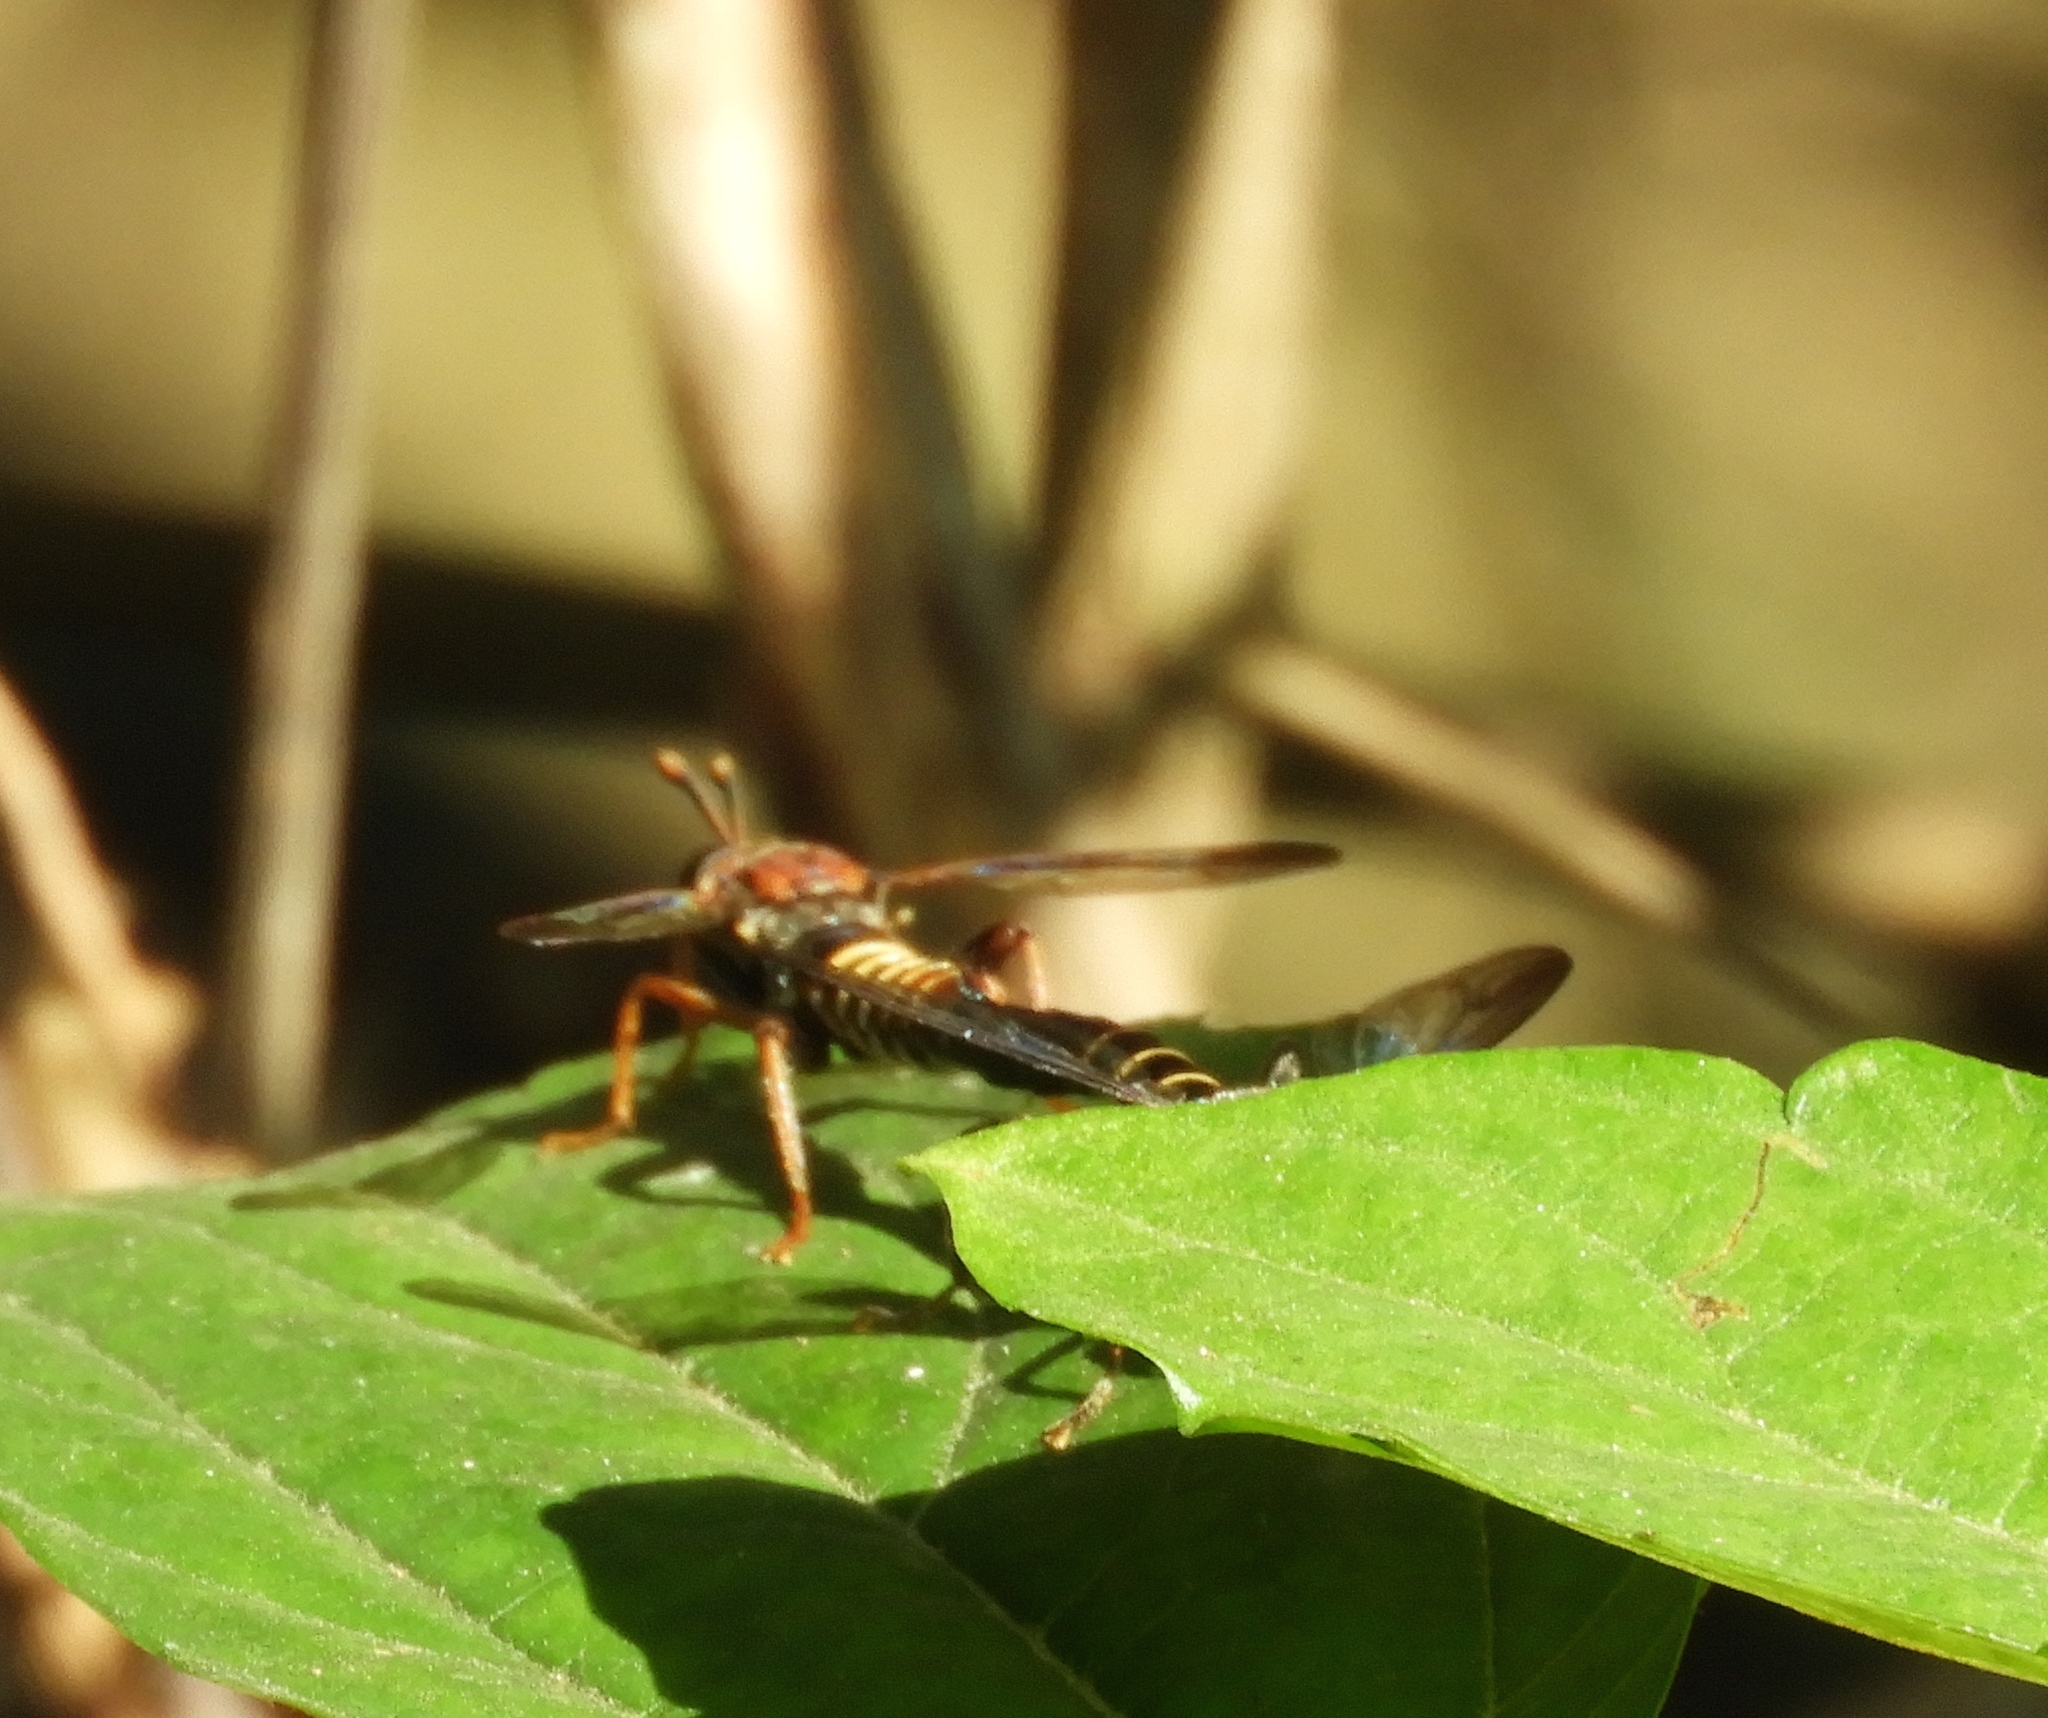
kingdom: Animalia
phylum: Arthropoda
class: Insecta
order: Diptera
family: Mydidae
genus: Mydas
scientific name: Mydas
